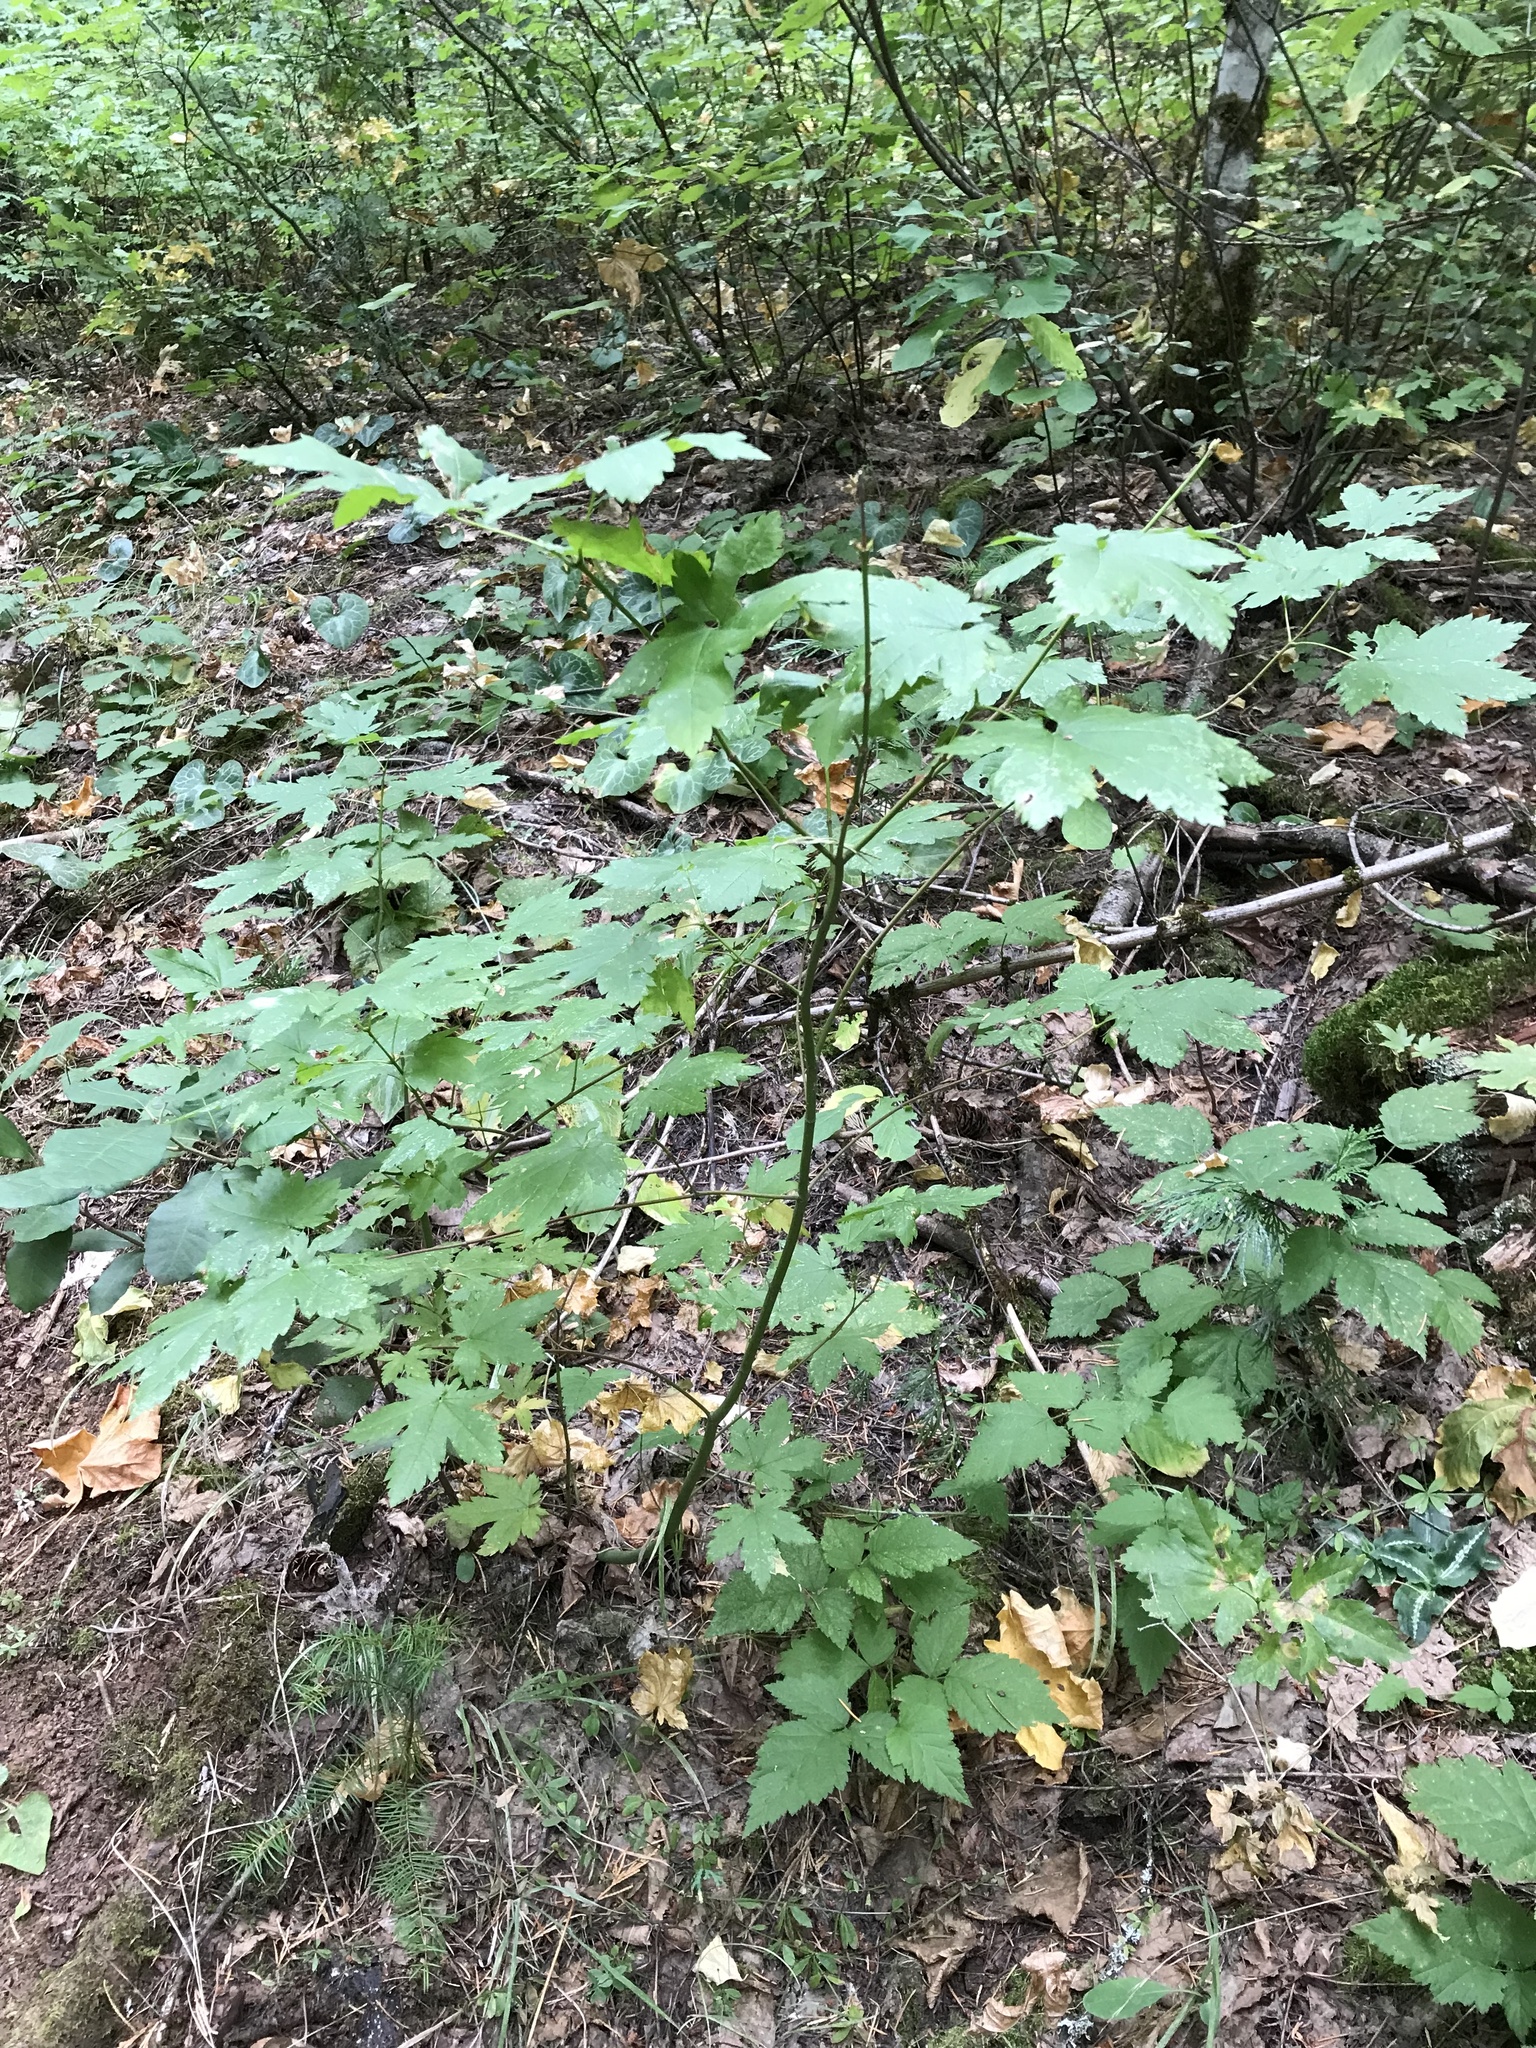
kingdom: Plantae
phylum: Tracheophyta
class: Magnoliopsida
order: Sapindales
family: Sapindaceae
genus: Acer
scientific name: Acer circinatum
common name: Vine maple
